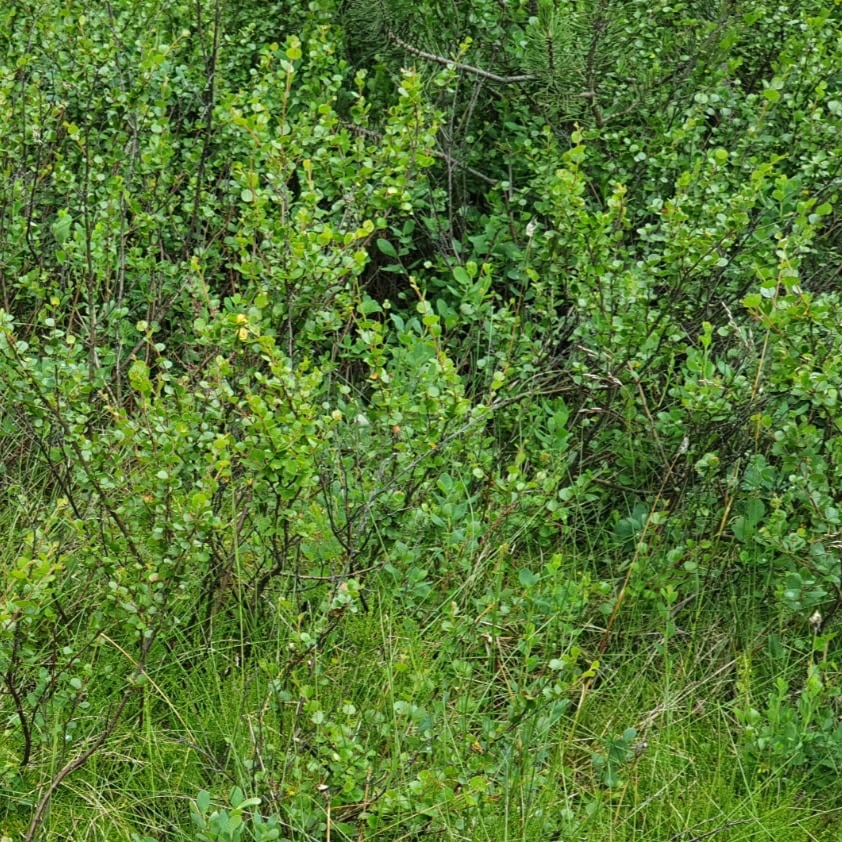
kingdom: Plantae
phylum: Tracheophyta
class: Magnoliopsida
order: Fagales
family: Betulaceae
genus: Betula
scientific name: Betula nana
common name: Arctic dwarf birch
